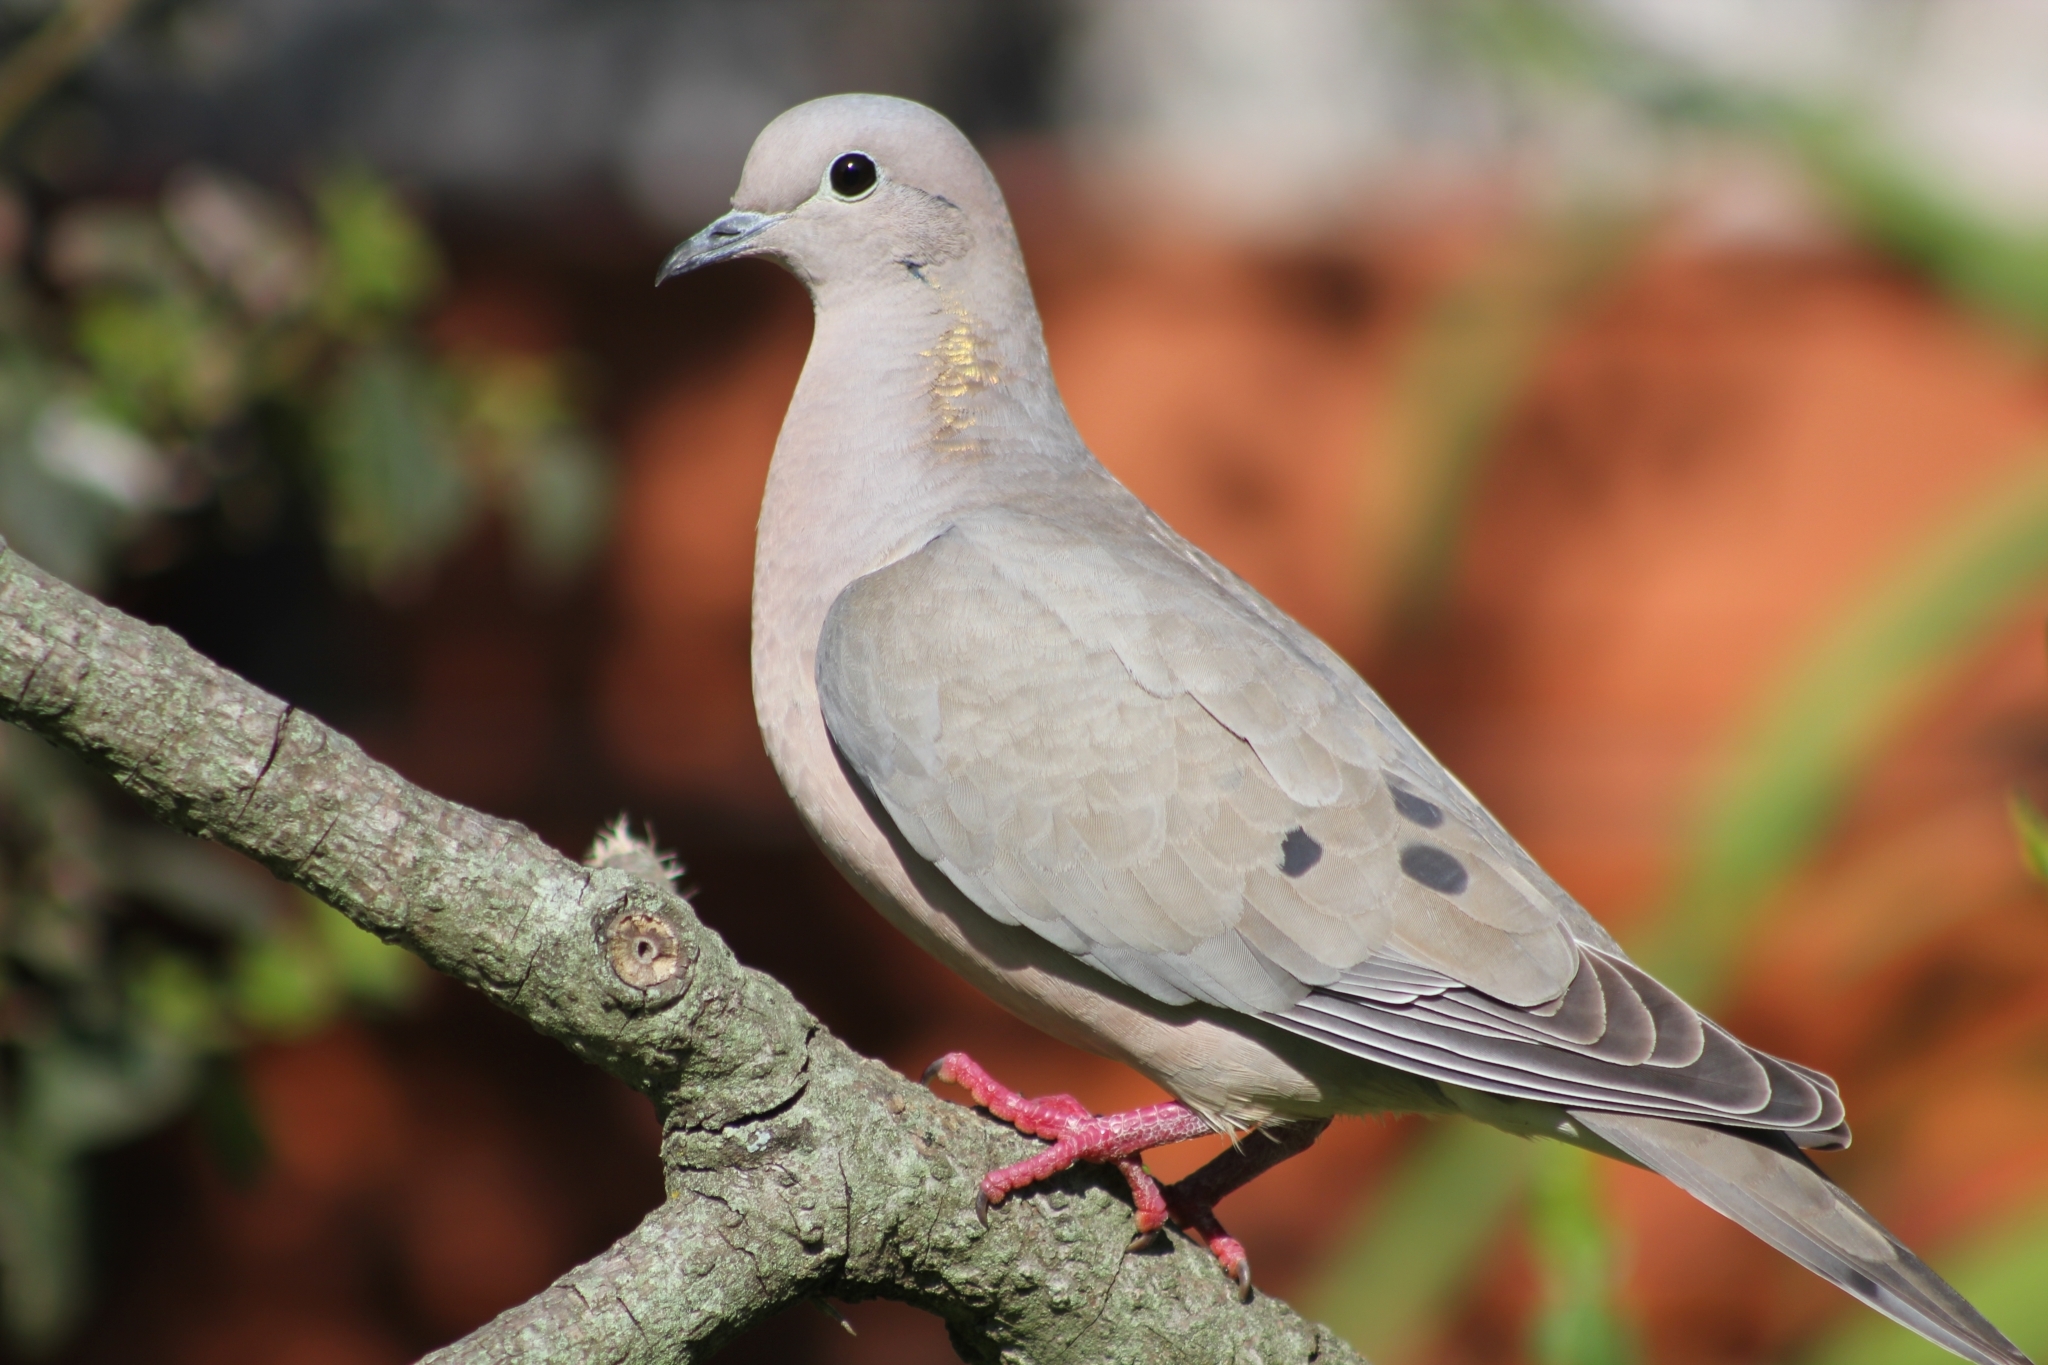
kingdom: Animalia
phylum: Chordata
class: Aves
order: Columbiformes
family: Columbidae
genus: Zenaida
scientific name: Zenaida auriculata
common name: Eared dove
